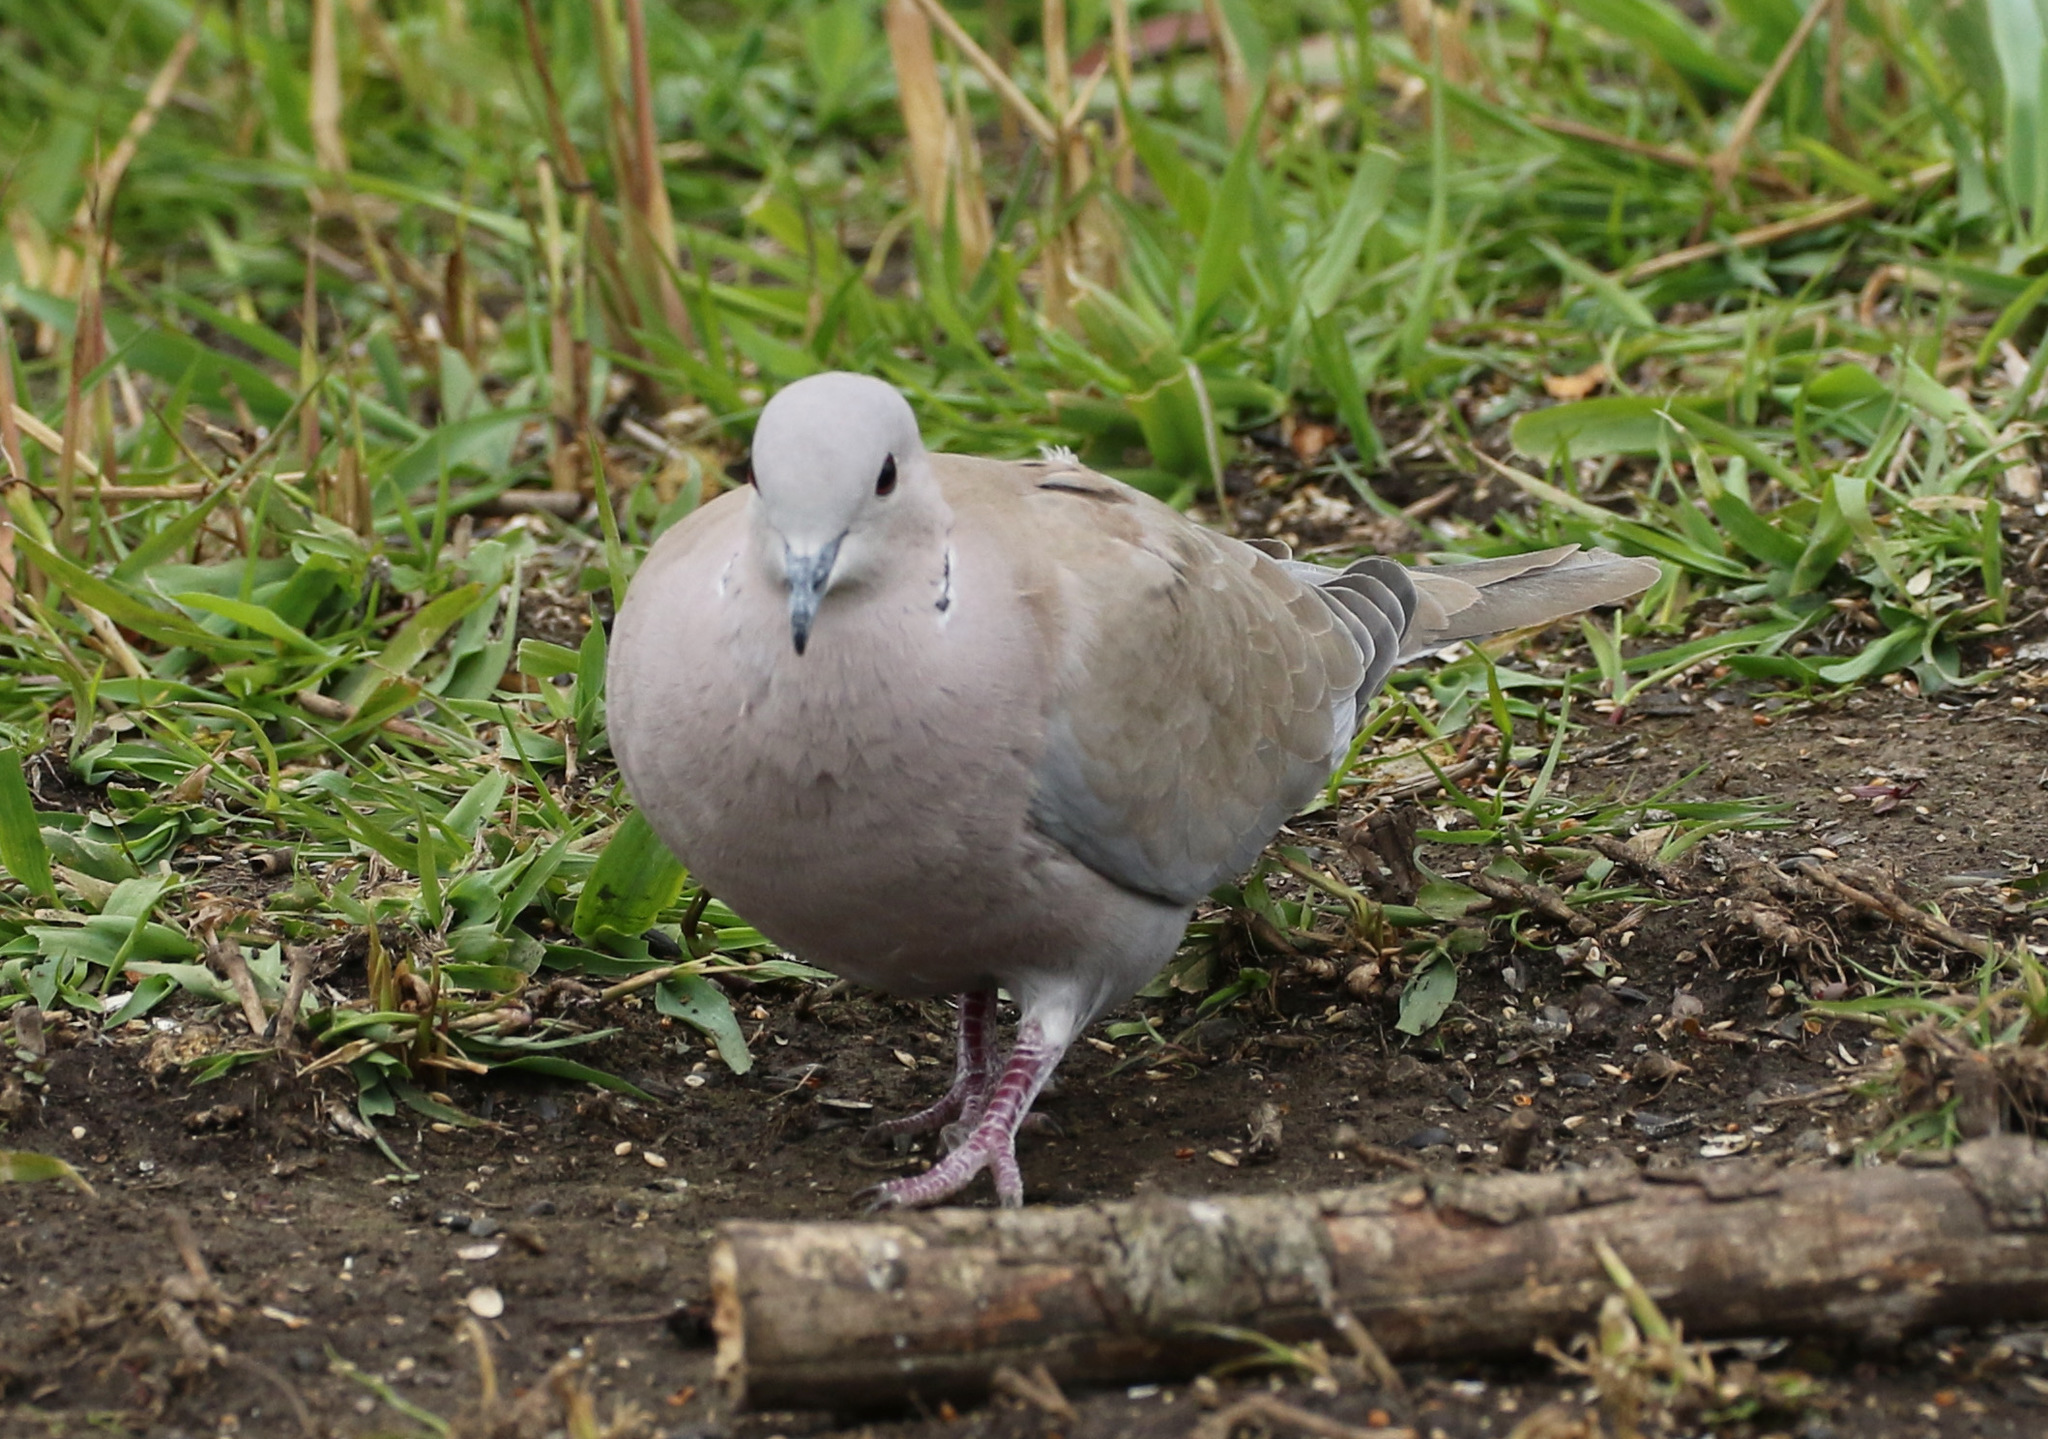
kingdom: Animalia
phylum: Chordata
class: Aves
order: Columbiformes
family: Columbidae
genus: Streptopelia
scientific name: Streptopelia decaocto
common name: Eurasian collared dove
